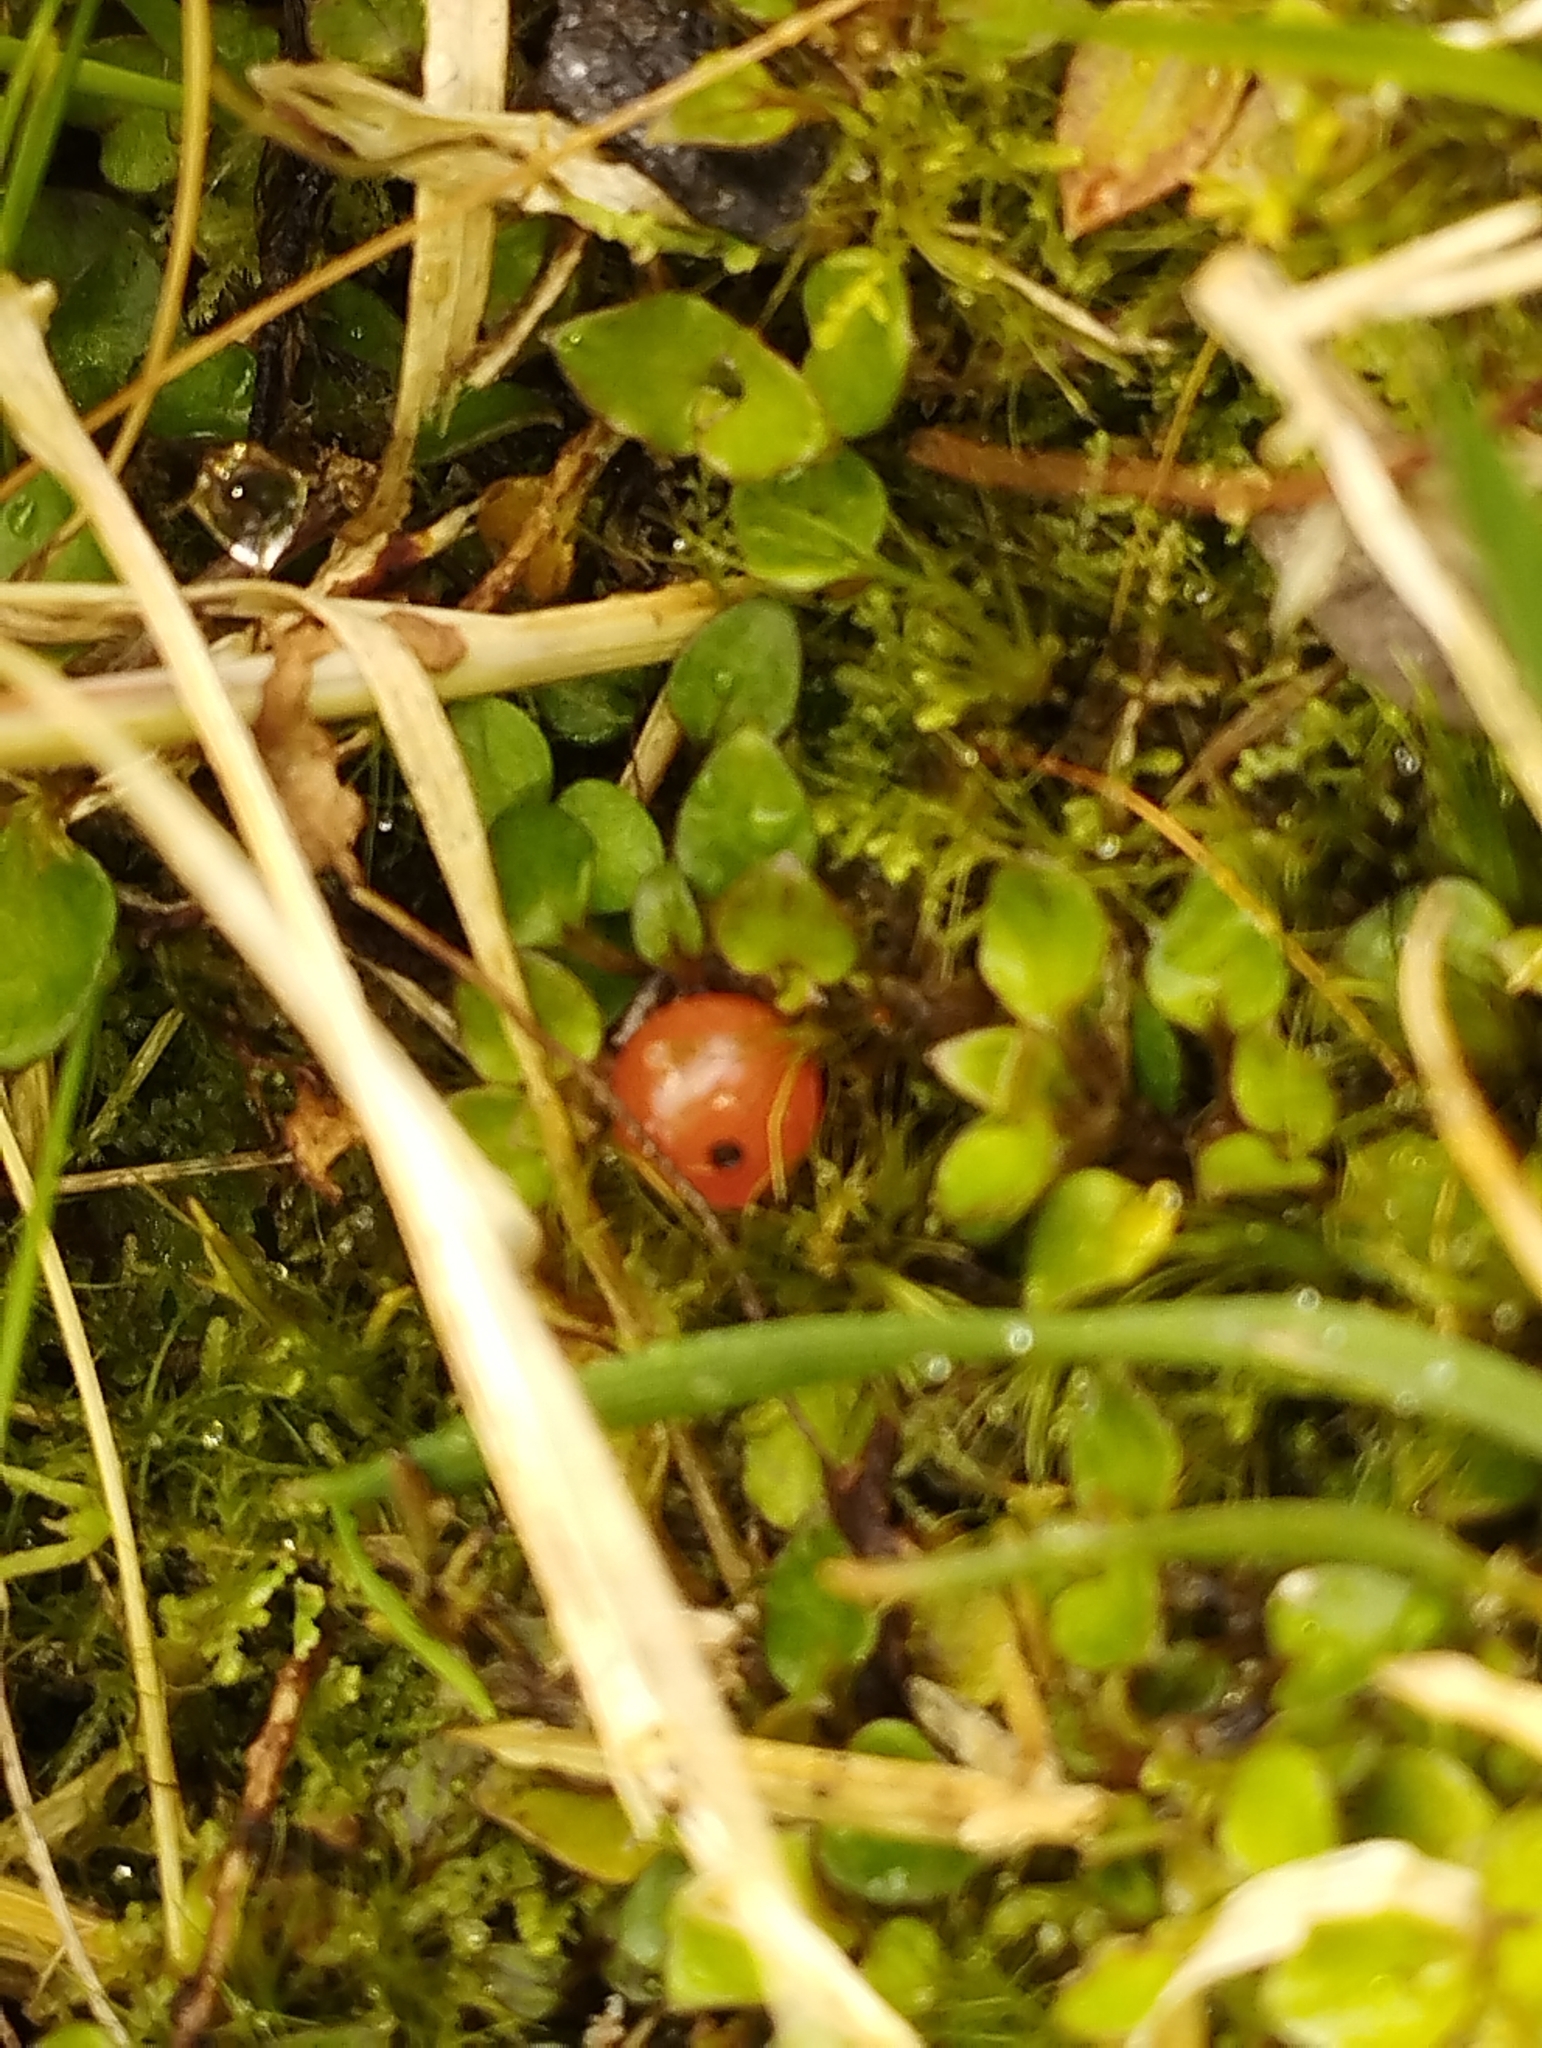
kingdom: Plantae
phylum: Tracheophyta
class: Magnoliopsida
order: Gentianales
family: Rubiaceae
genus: Nertera
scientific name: Nertera granadensis
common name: Beadplant
